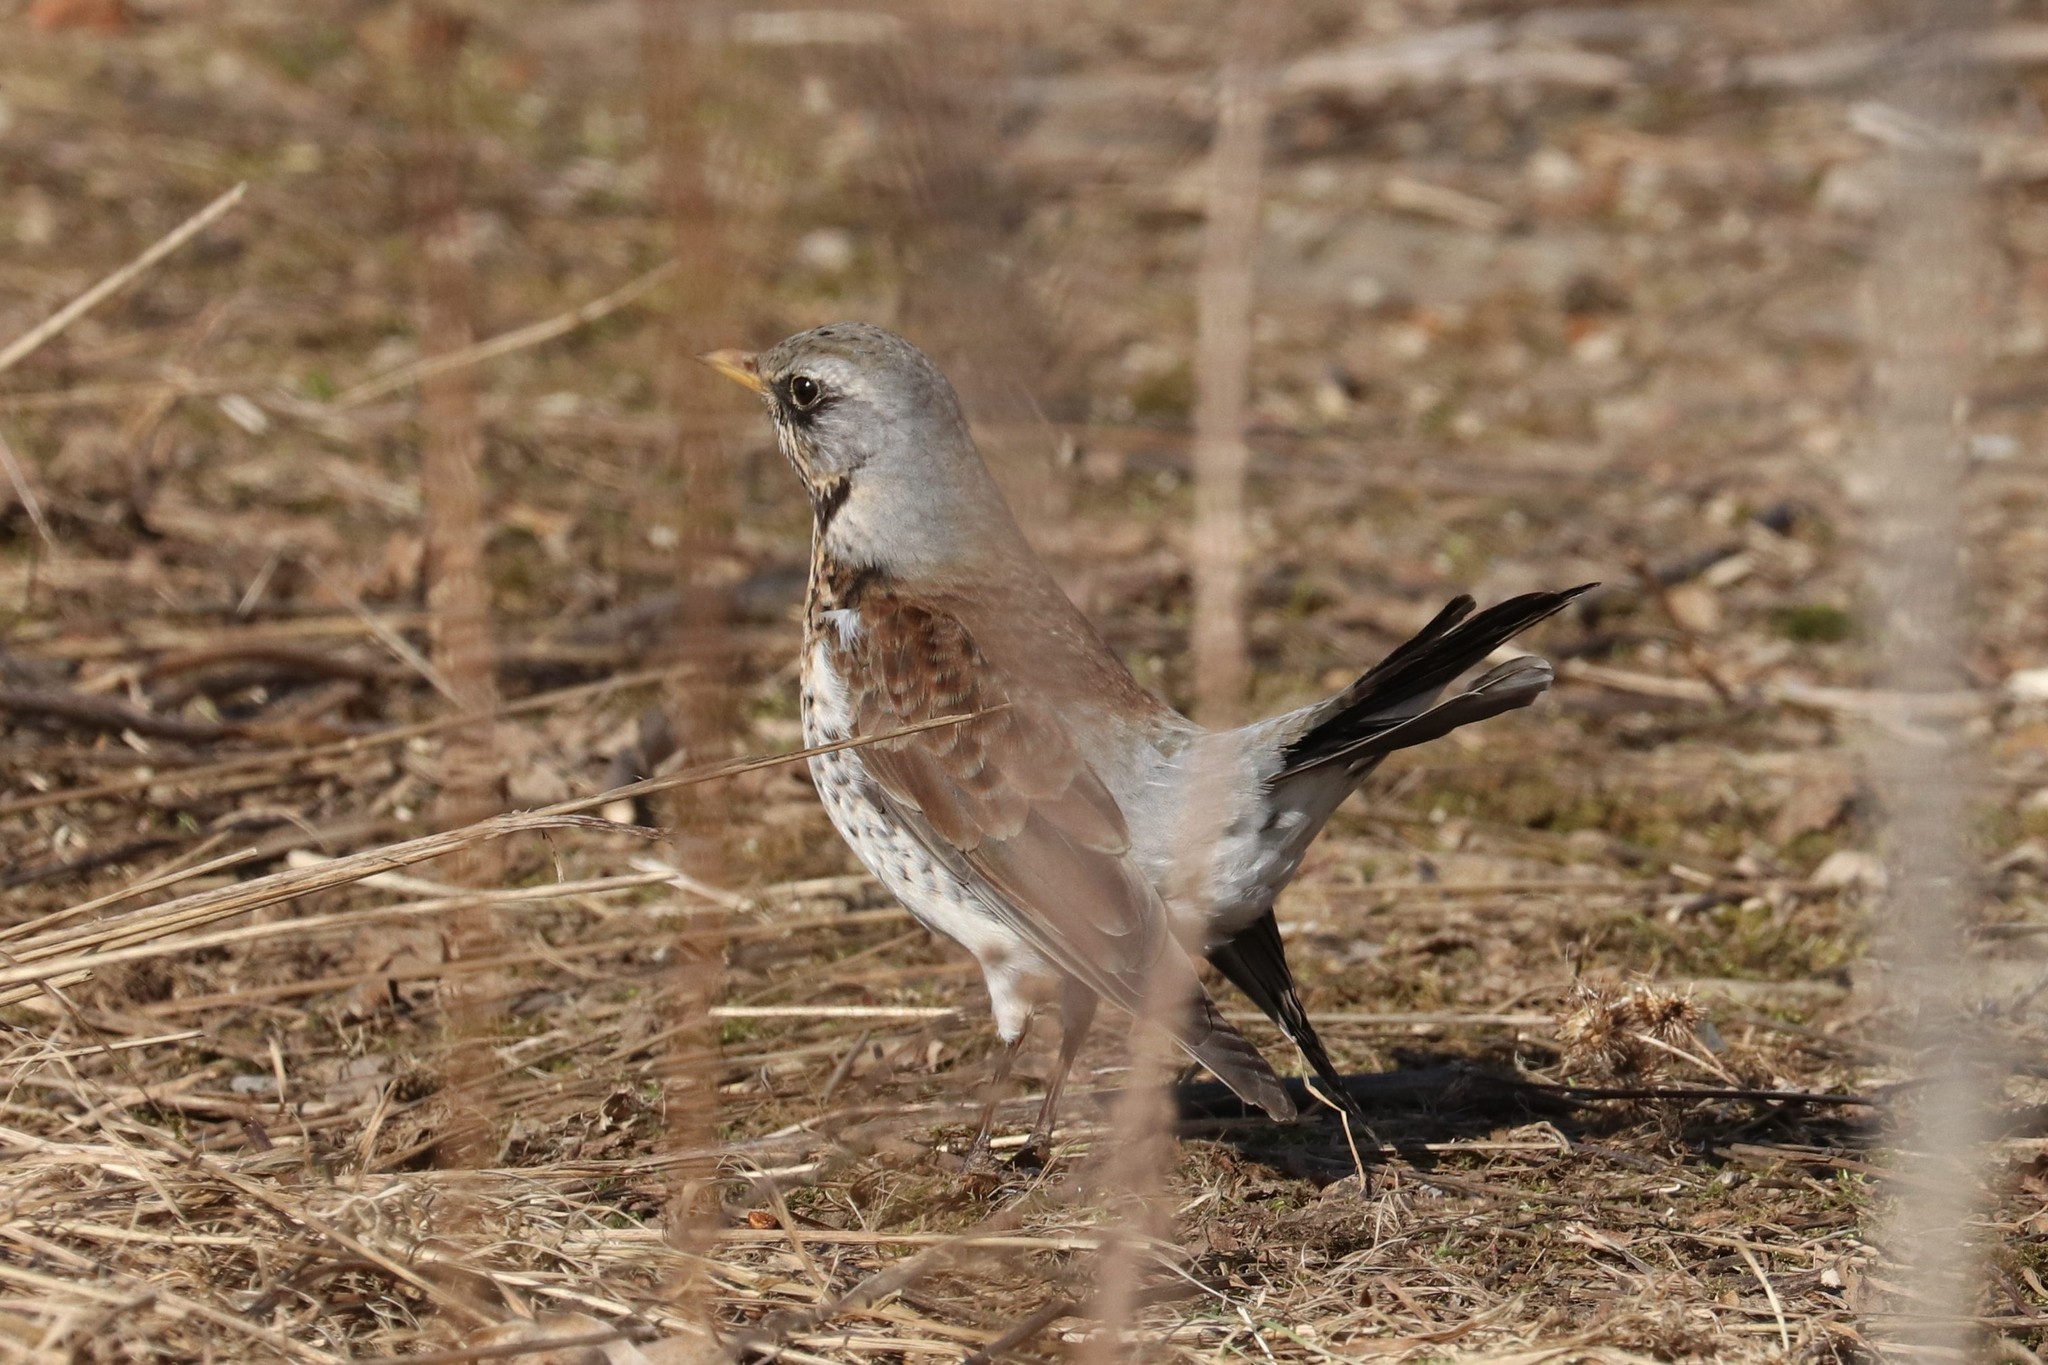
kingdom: Animalia
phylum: Chordata
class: Aves
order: Passeriformes
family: Turdidae
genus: Turdus
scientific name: Turdus pilaris
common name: Fieldfare
